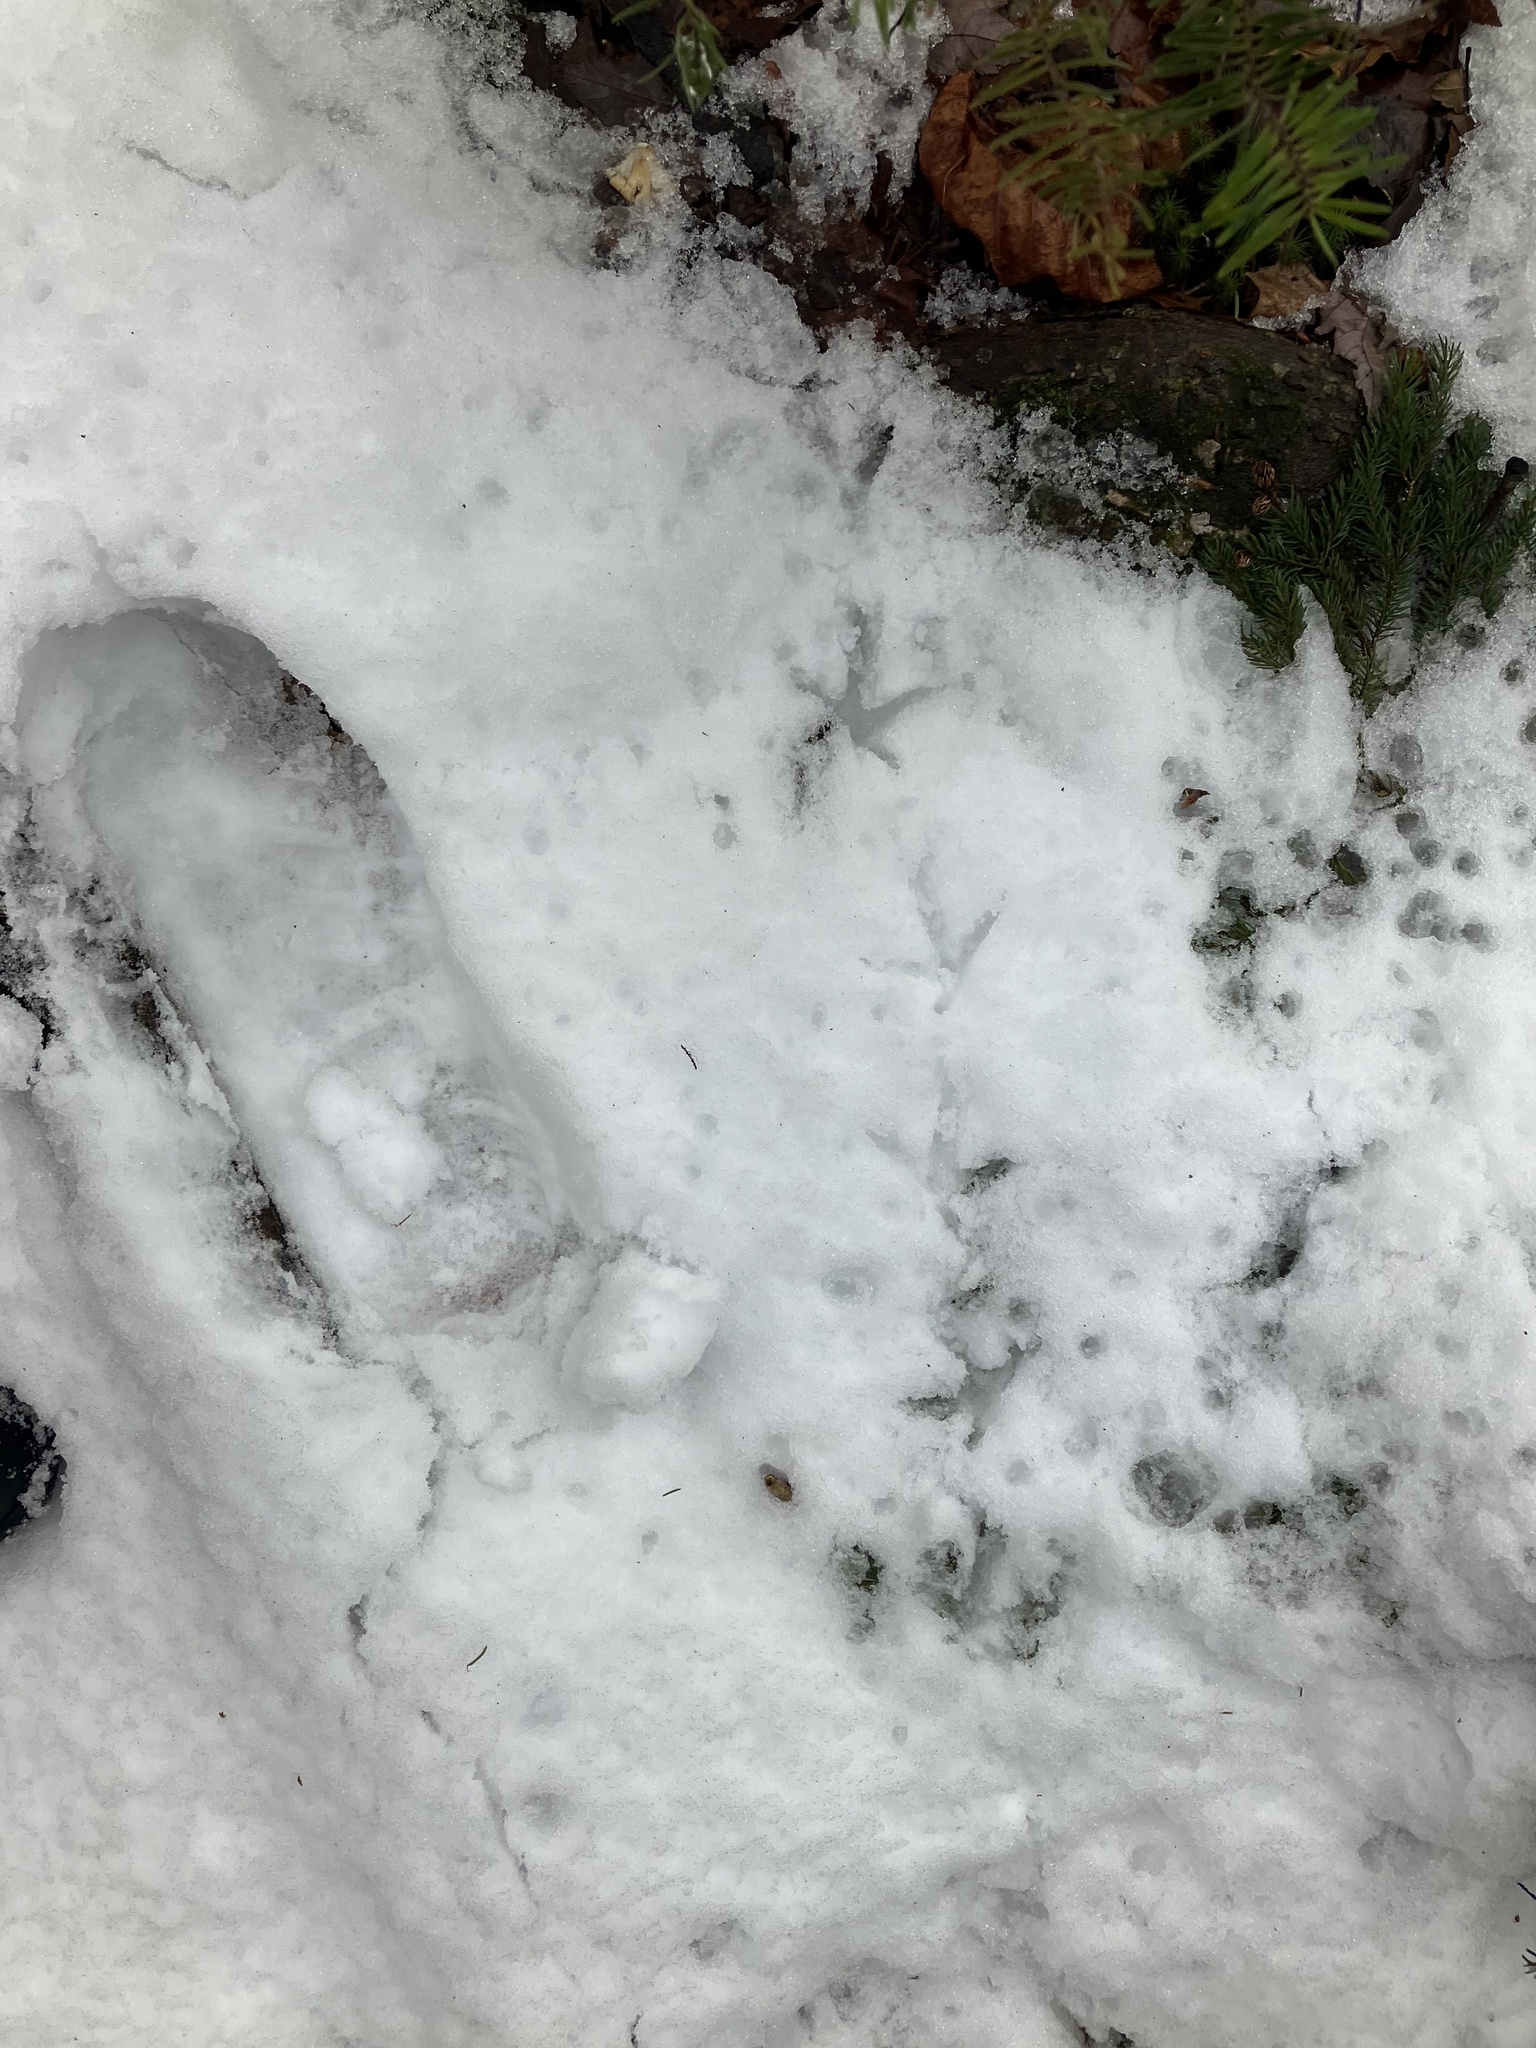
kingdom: Animalia
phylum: Chordata
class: Aves
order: Galliformes
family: Phasianidae
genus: Bonasa
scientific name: Bonasa umbellus
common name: Ruffed grouse
